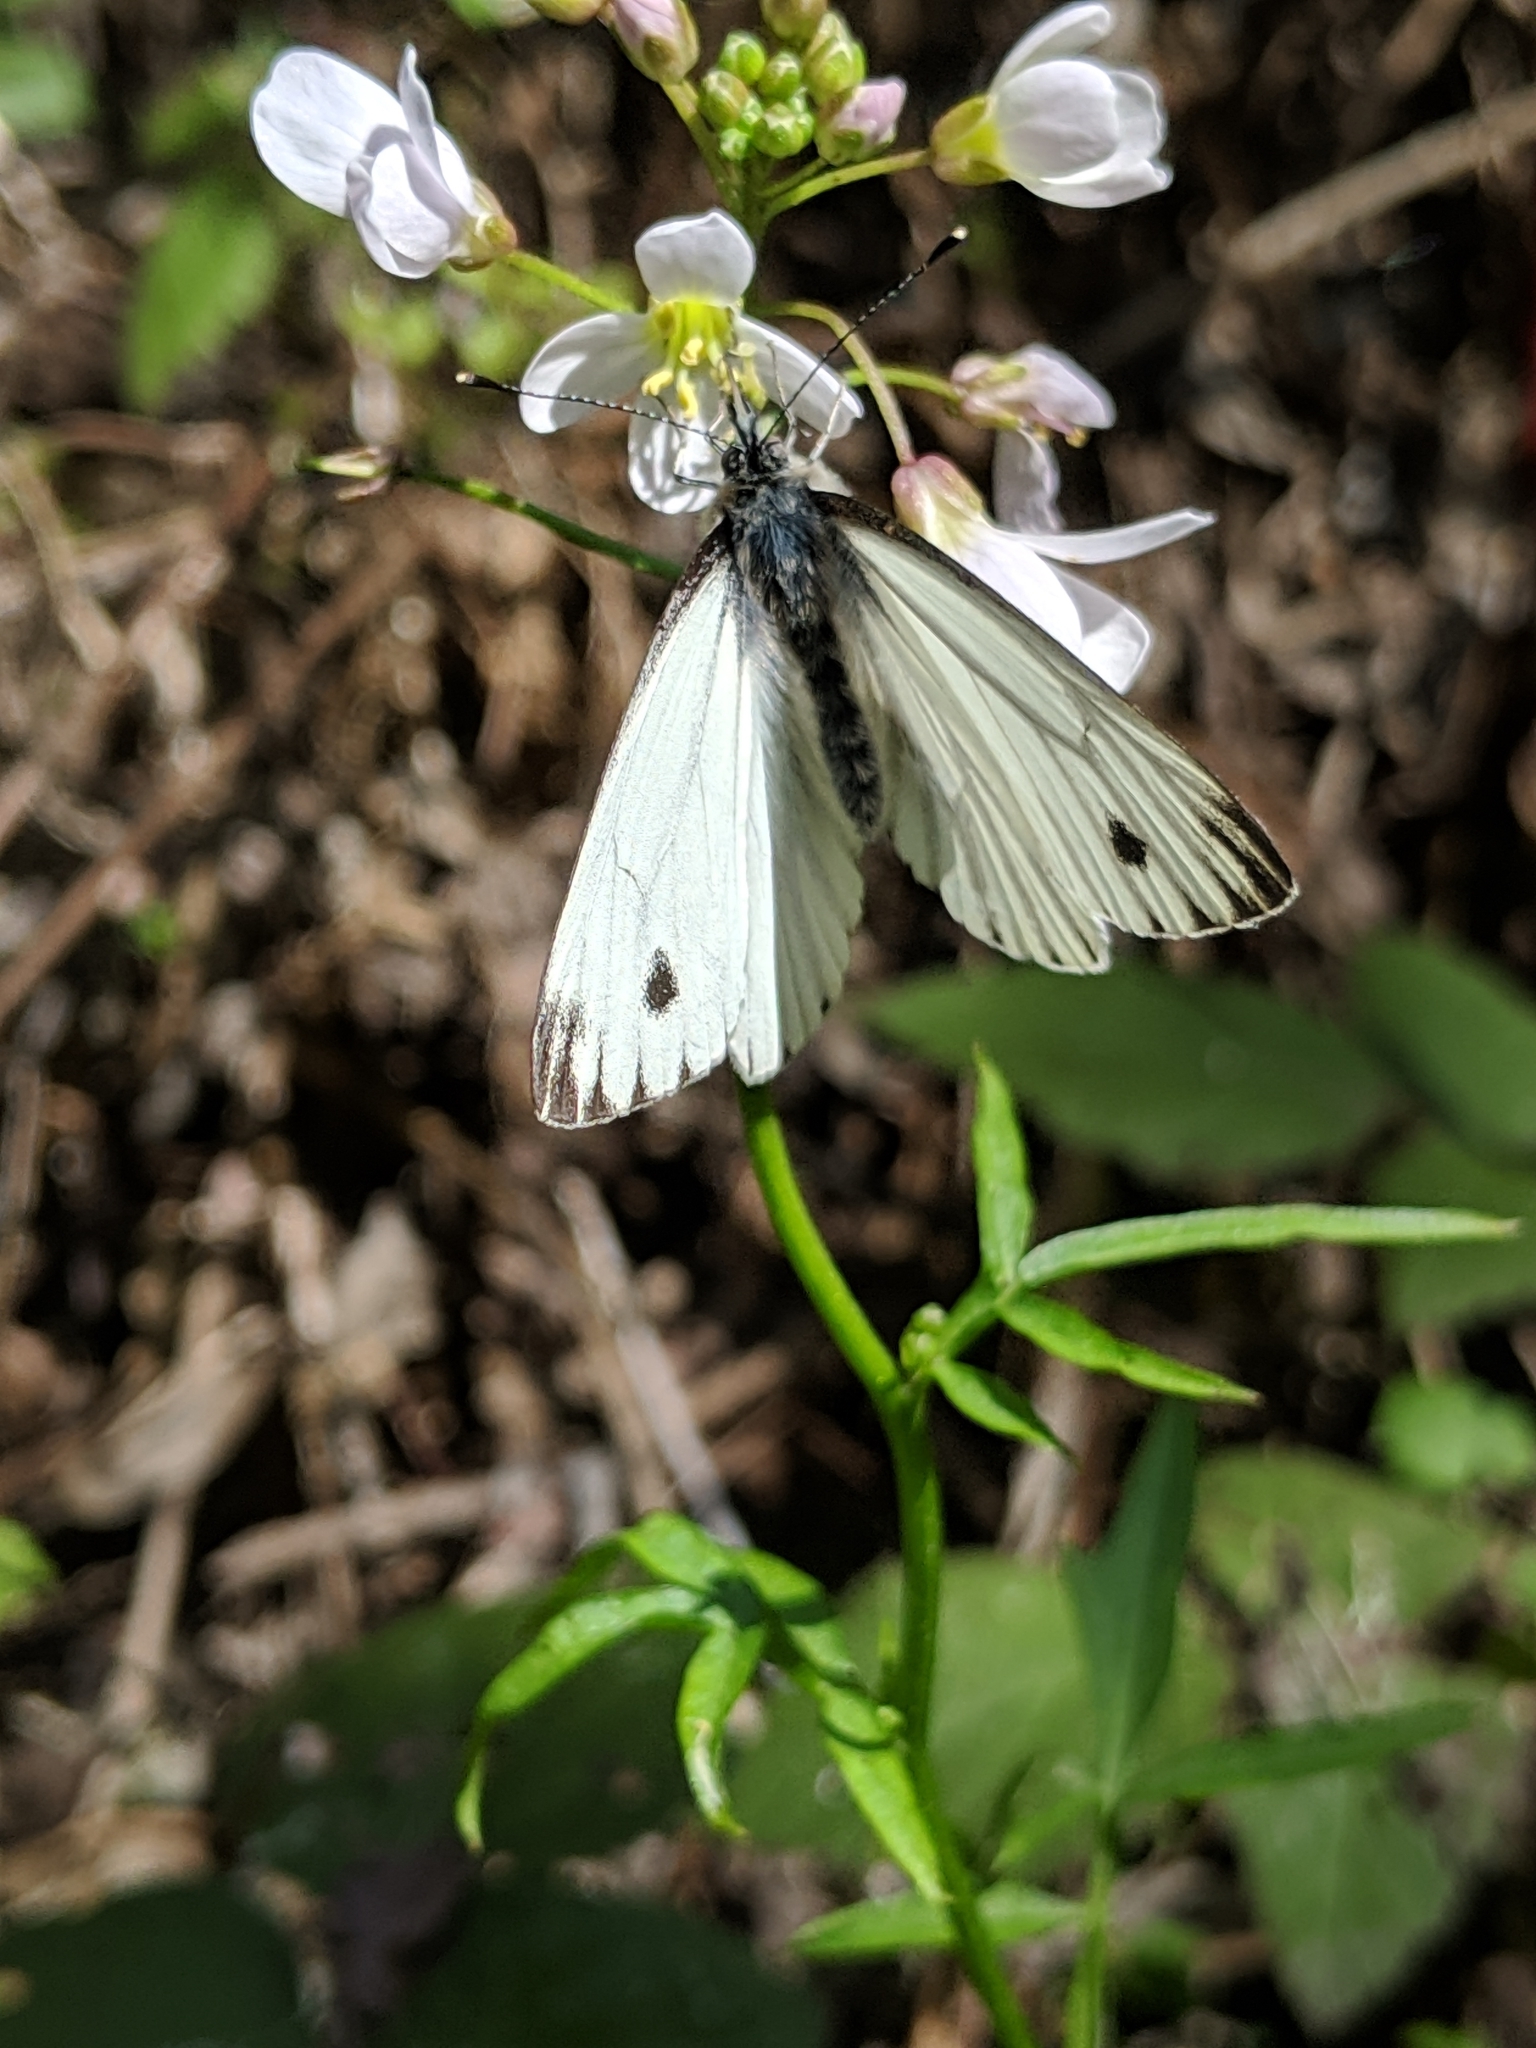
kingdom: Animalia
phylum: Arthropoda
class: Insecta
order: Lepidoptera
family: Pieridae
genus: Pieris
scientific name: Pieris marginalis
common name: Margined white
